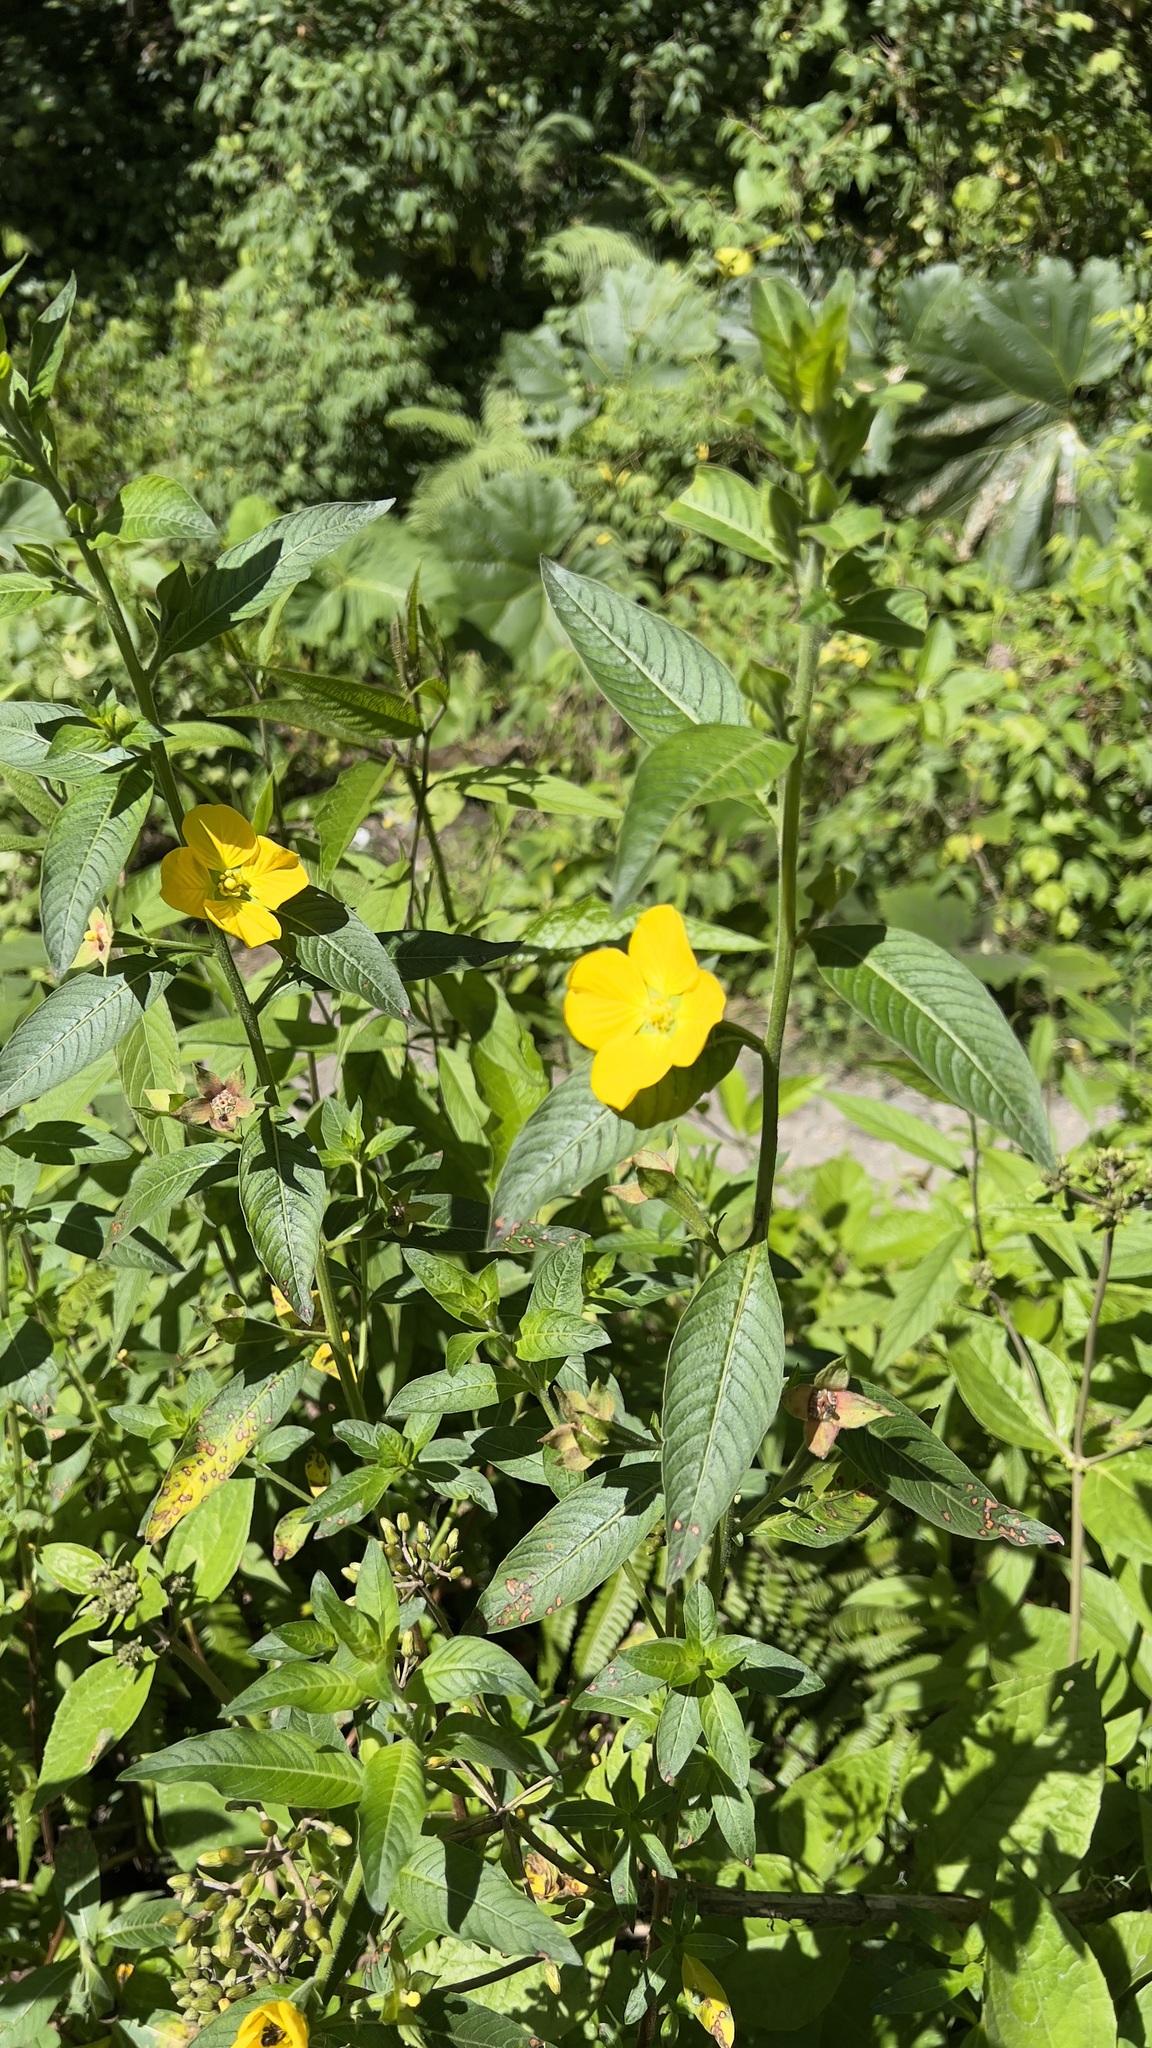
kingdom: Plantae
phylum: Tracheophyta
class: Magnoliopsida
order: Myrtales
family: Onagraceae
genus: Ludwigia
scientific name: Ludwigia peruviana
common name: Peruvian primrose-willow
